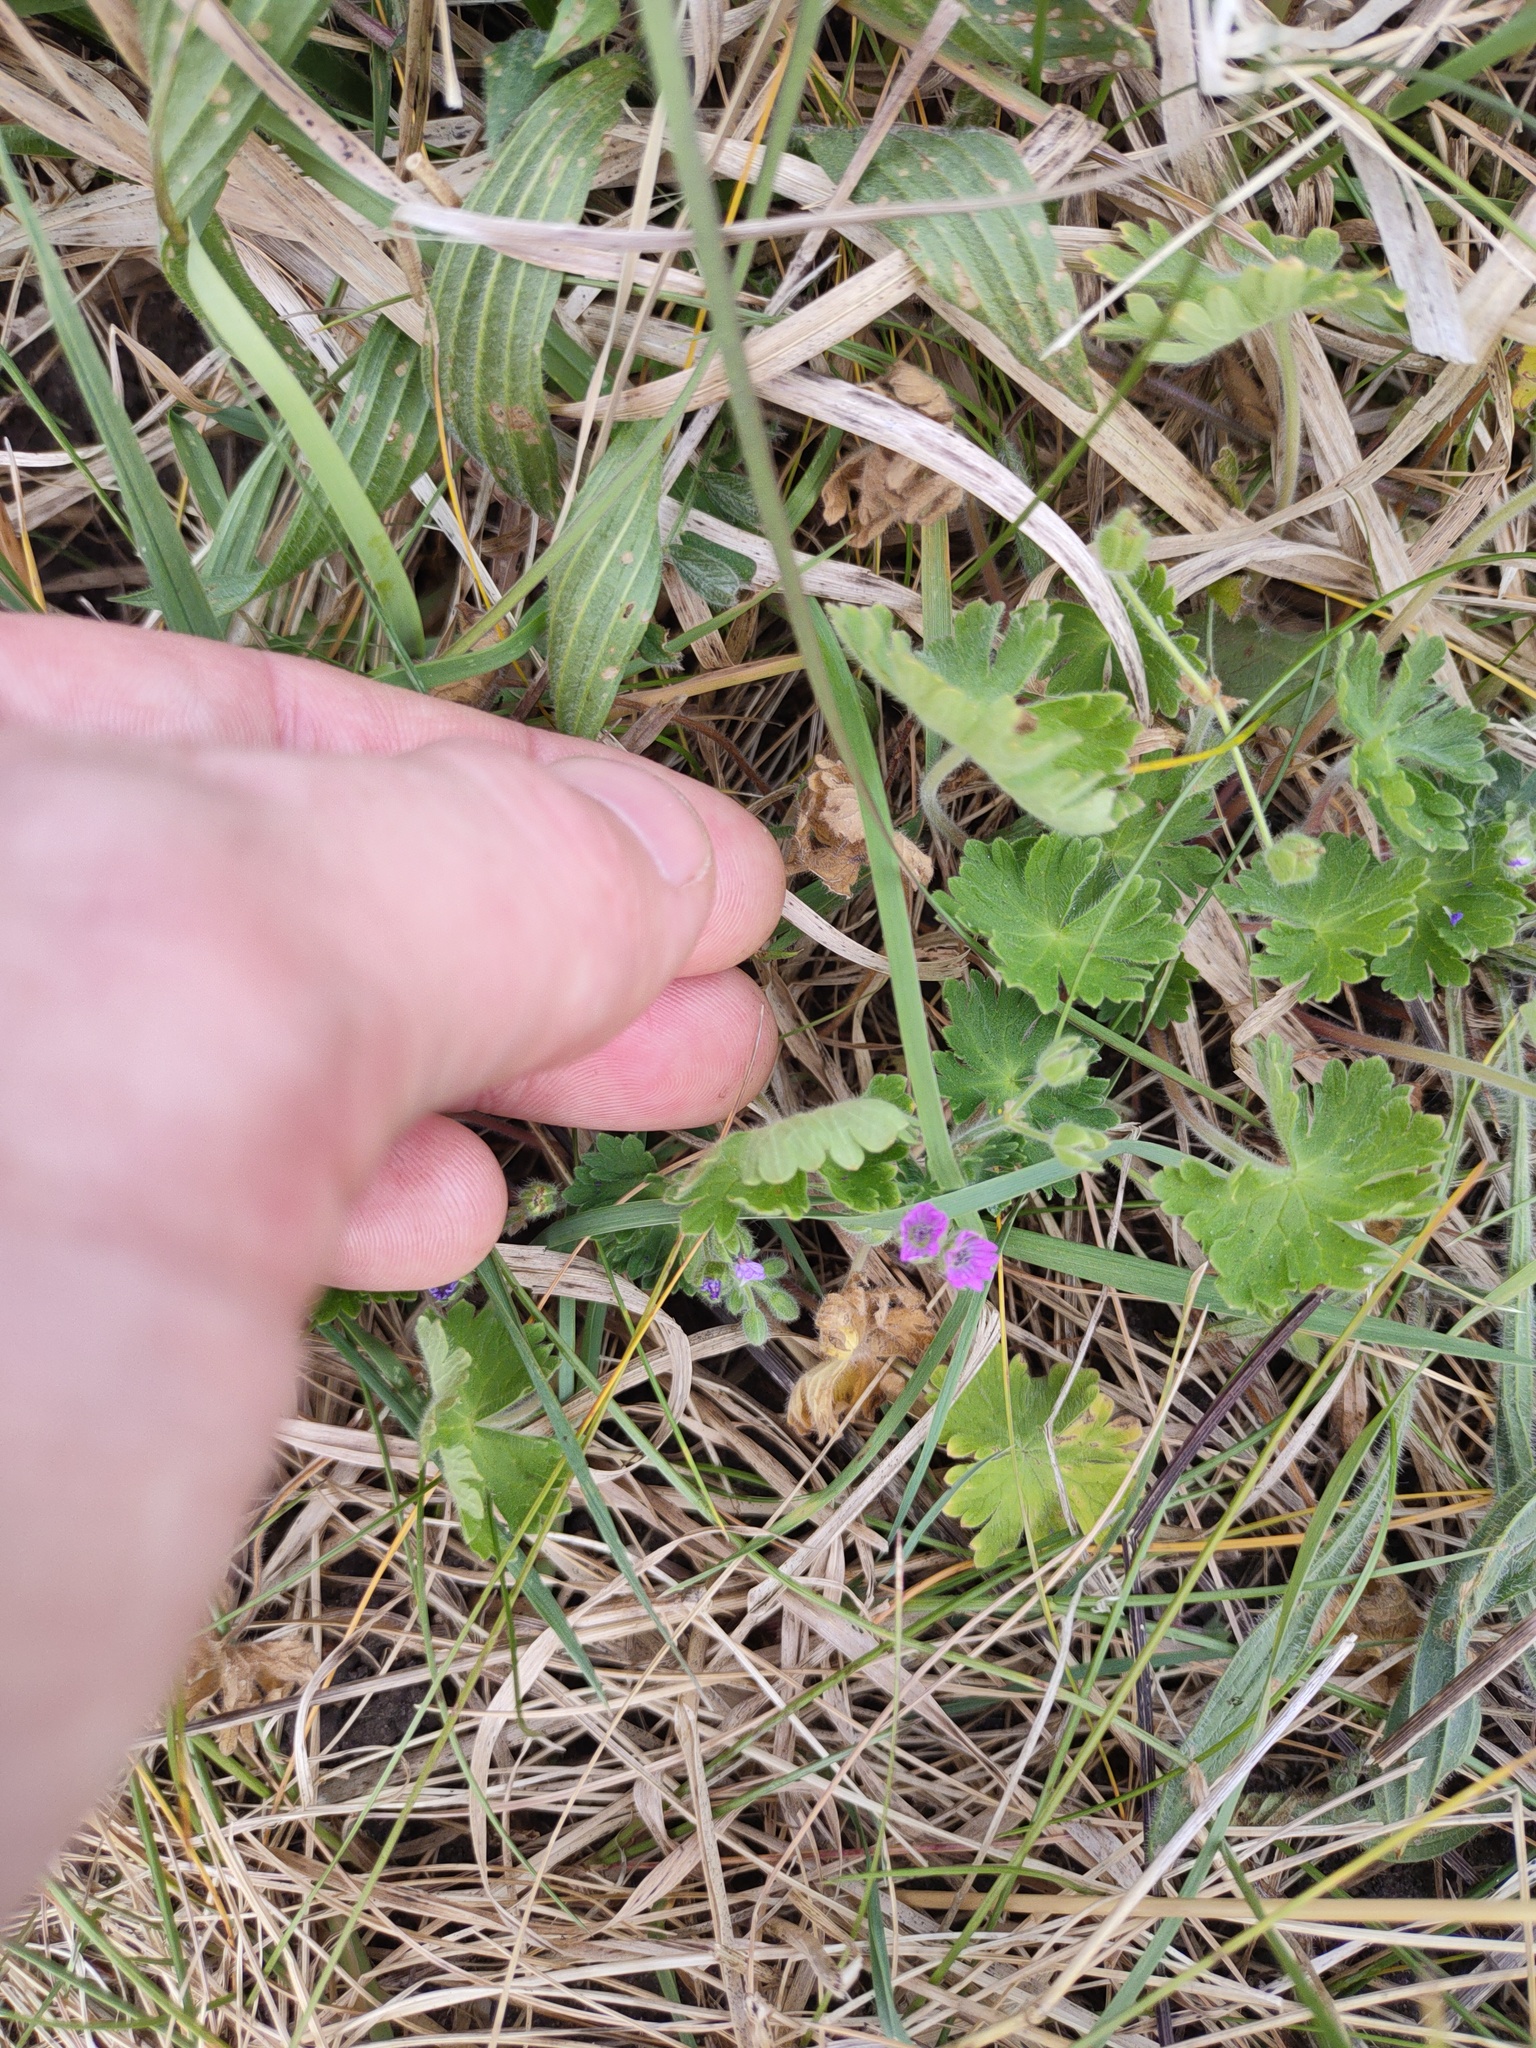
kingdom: Plantae
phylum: Tracheophyta
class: Magnoliopsida
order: Geraniales
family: Geraniaceae
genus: Geranium
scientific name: Geranium molle
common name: Dove's-foot crane's-bill
